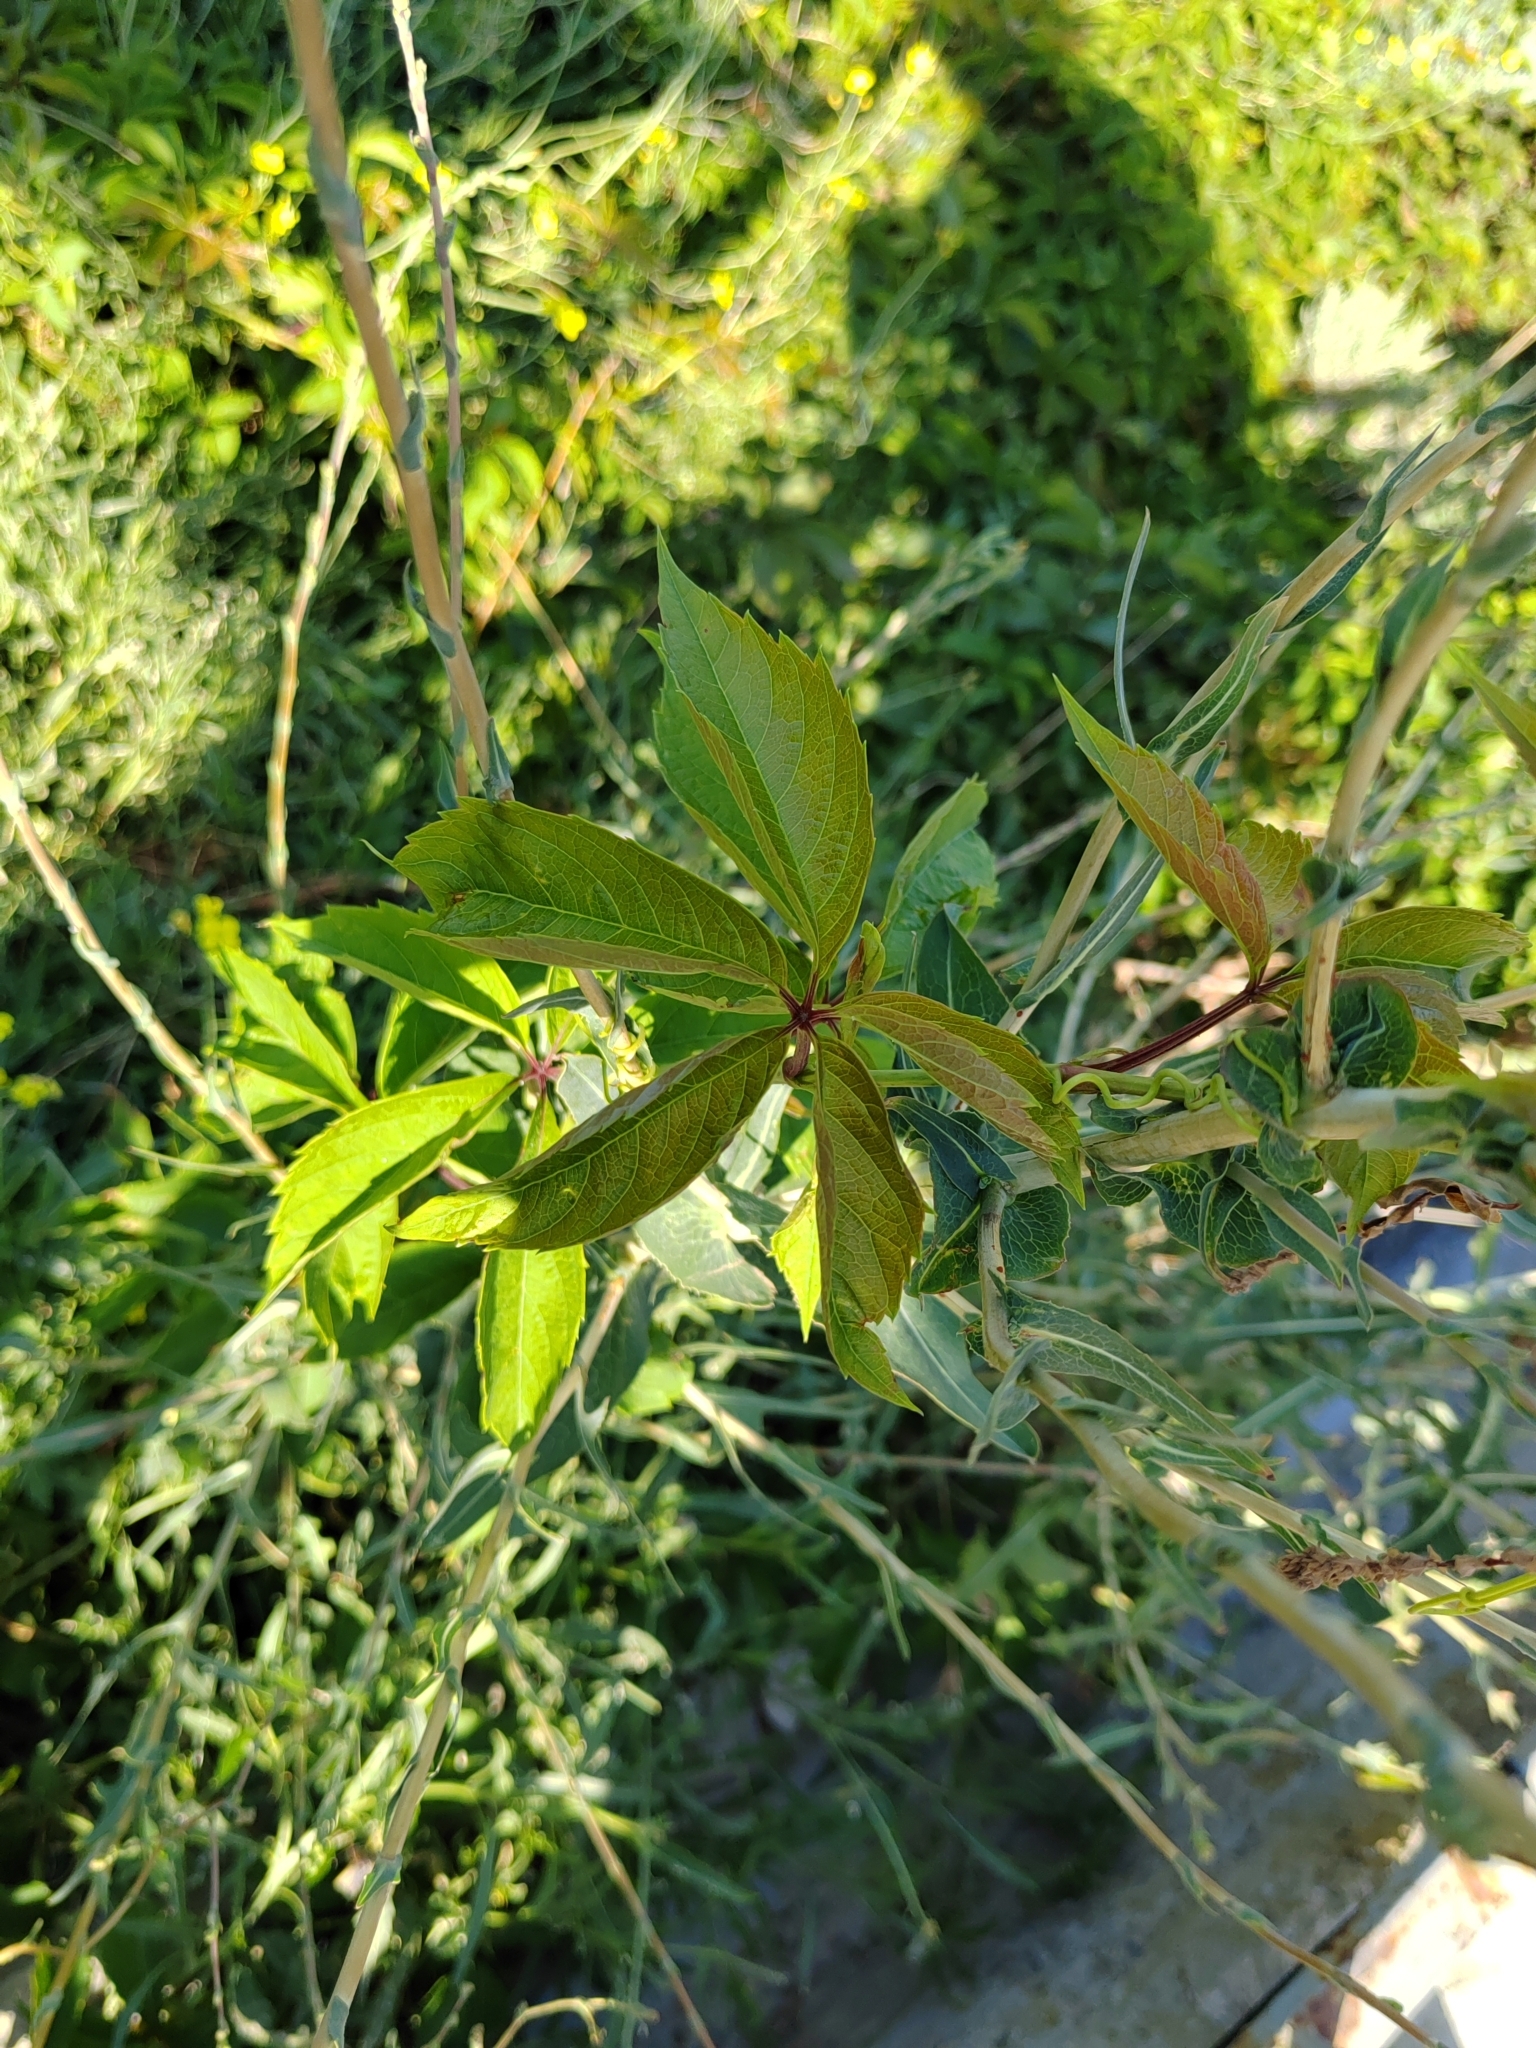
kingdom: Plantae
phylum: Tracheophyta
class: Magnoliopsida
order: Vitales
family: Vitaceae
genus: Parthenocissus
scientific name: Parthenocissus inserta
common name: False virginia-creeper
